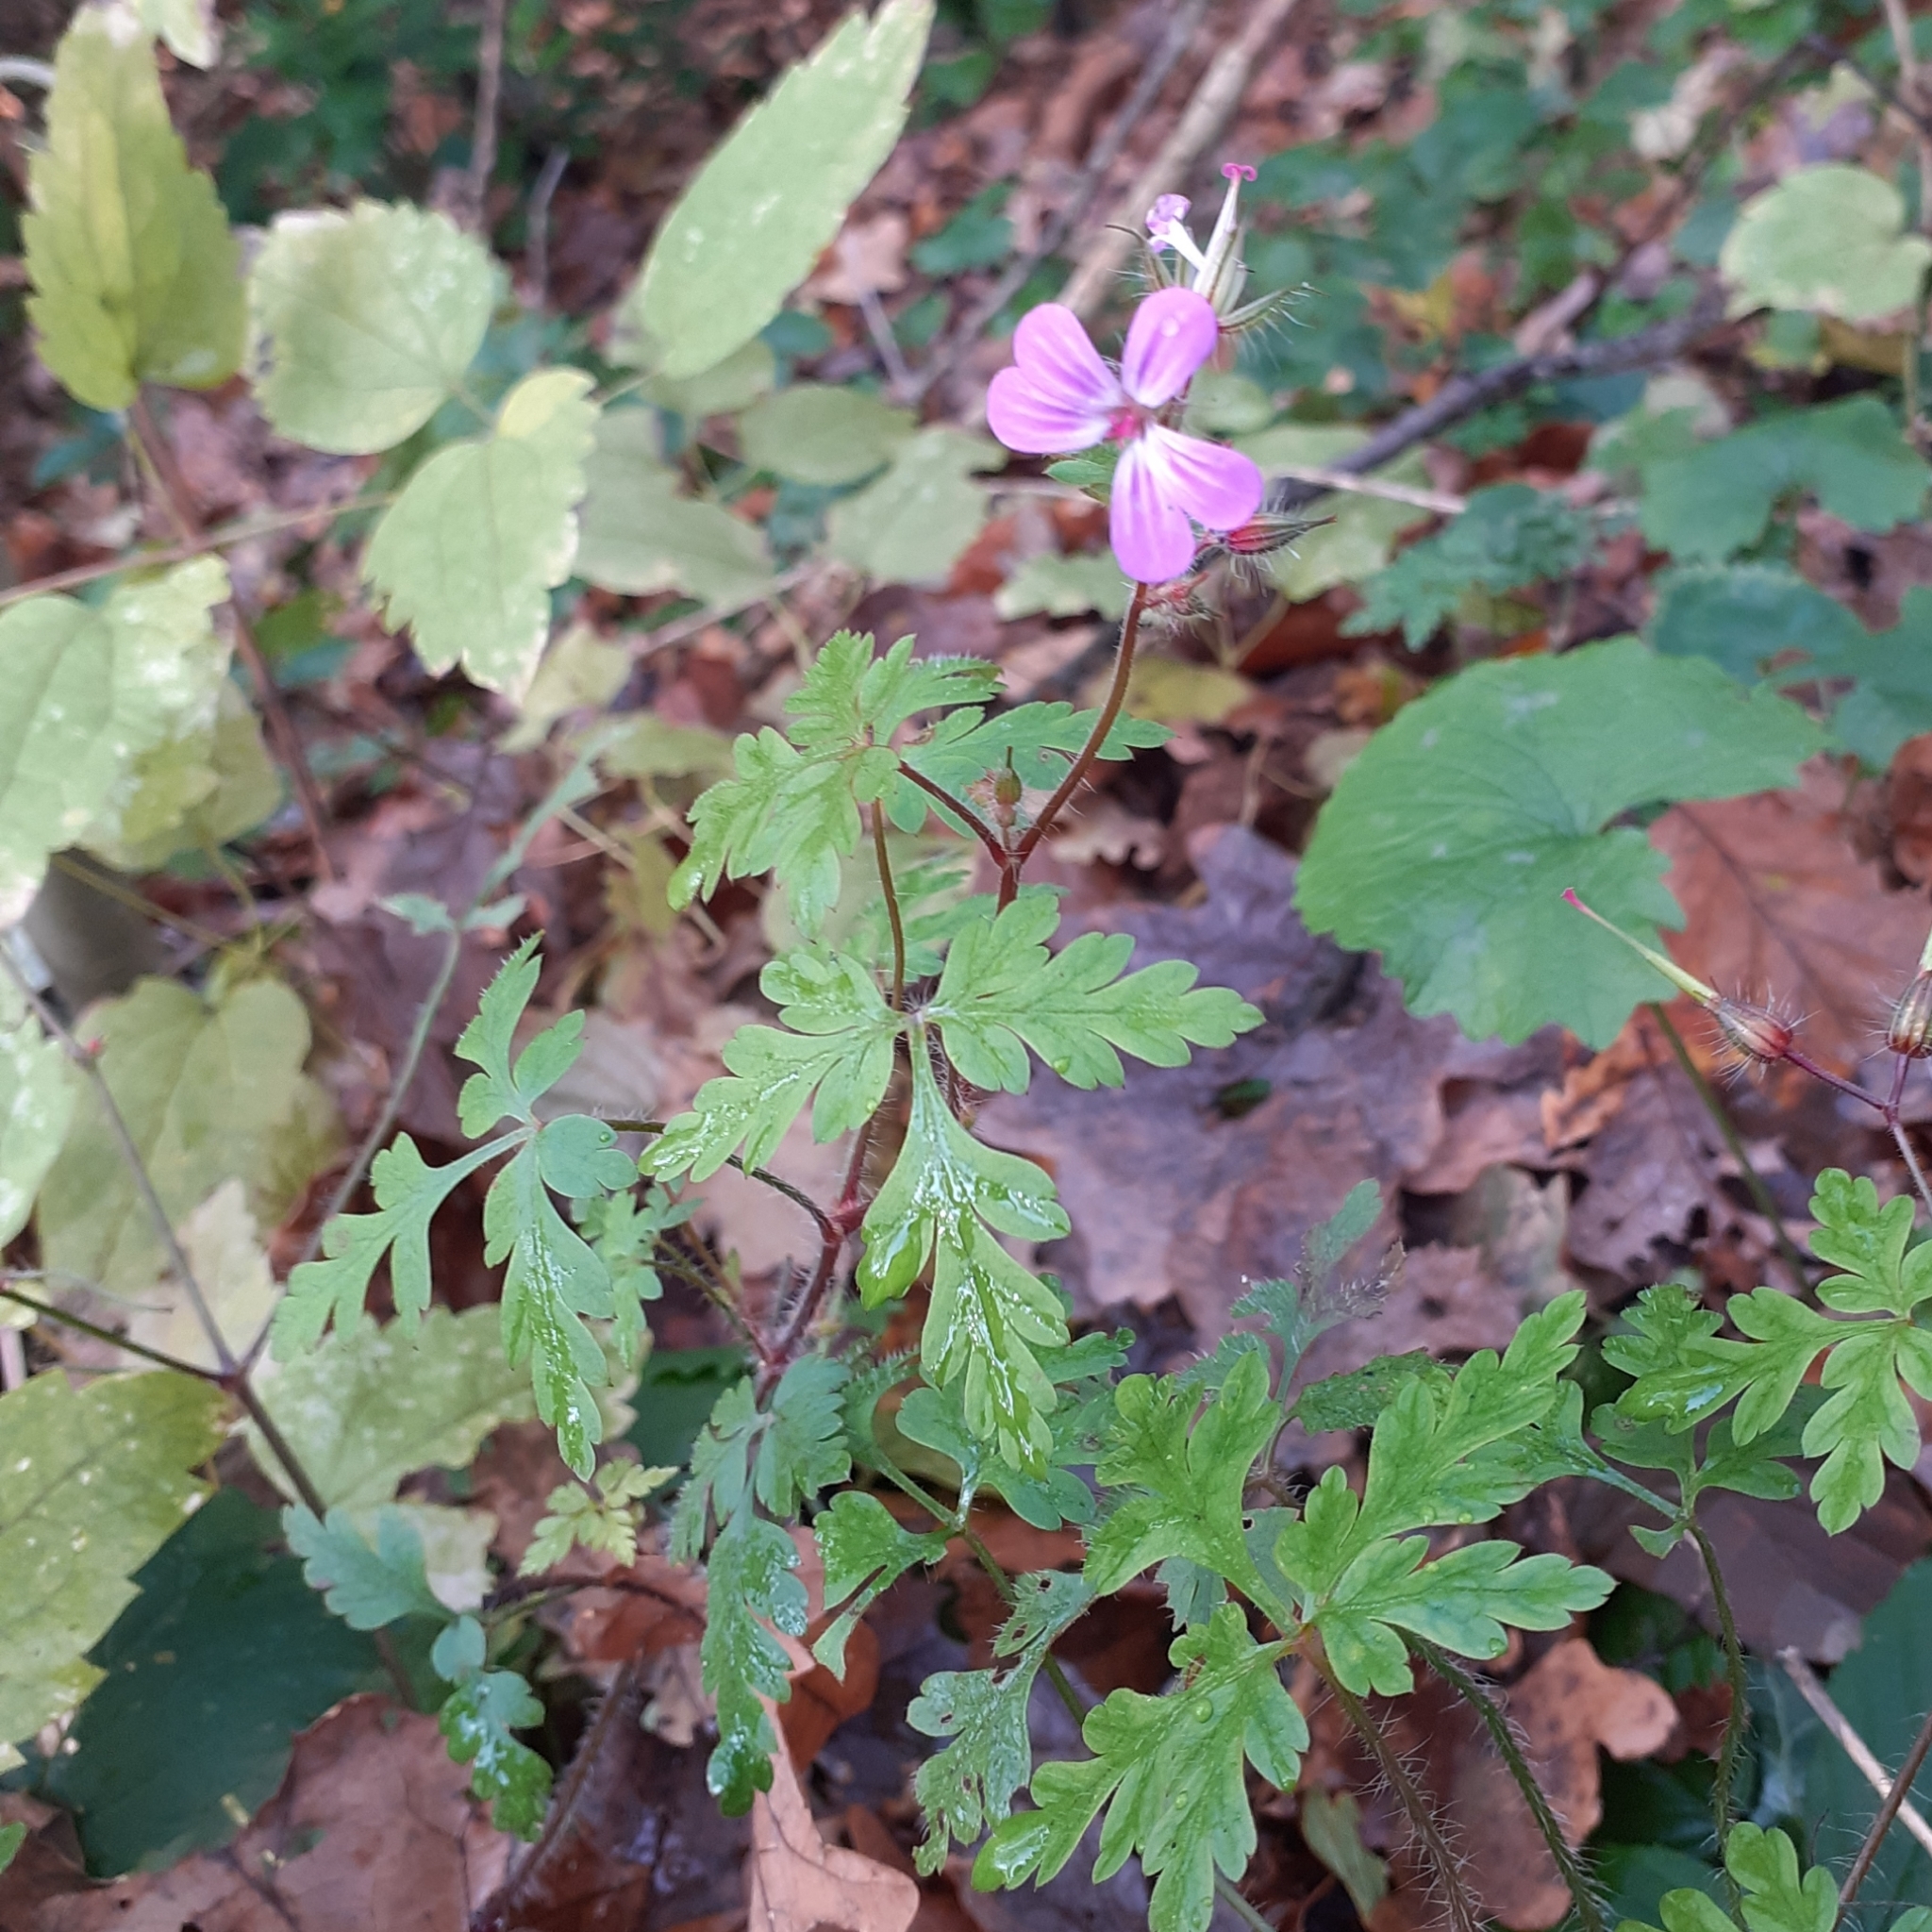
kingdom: Plantae
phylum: Tracheophyta
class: Magnoliopsida
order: Geraniales
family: Geraniaceae
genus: Geranium
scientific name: Geranium robertianum
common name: Herb-robert
